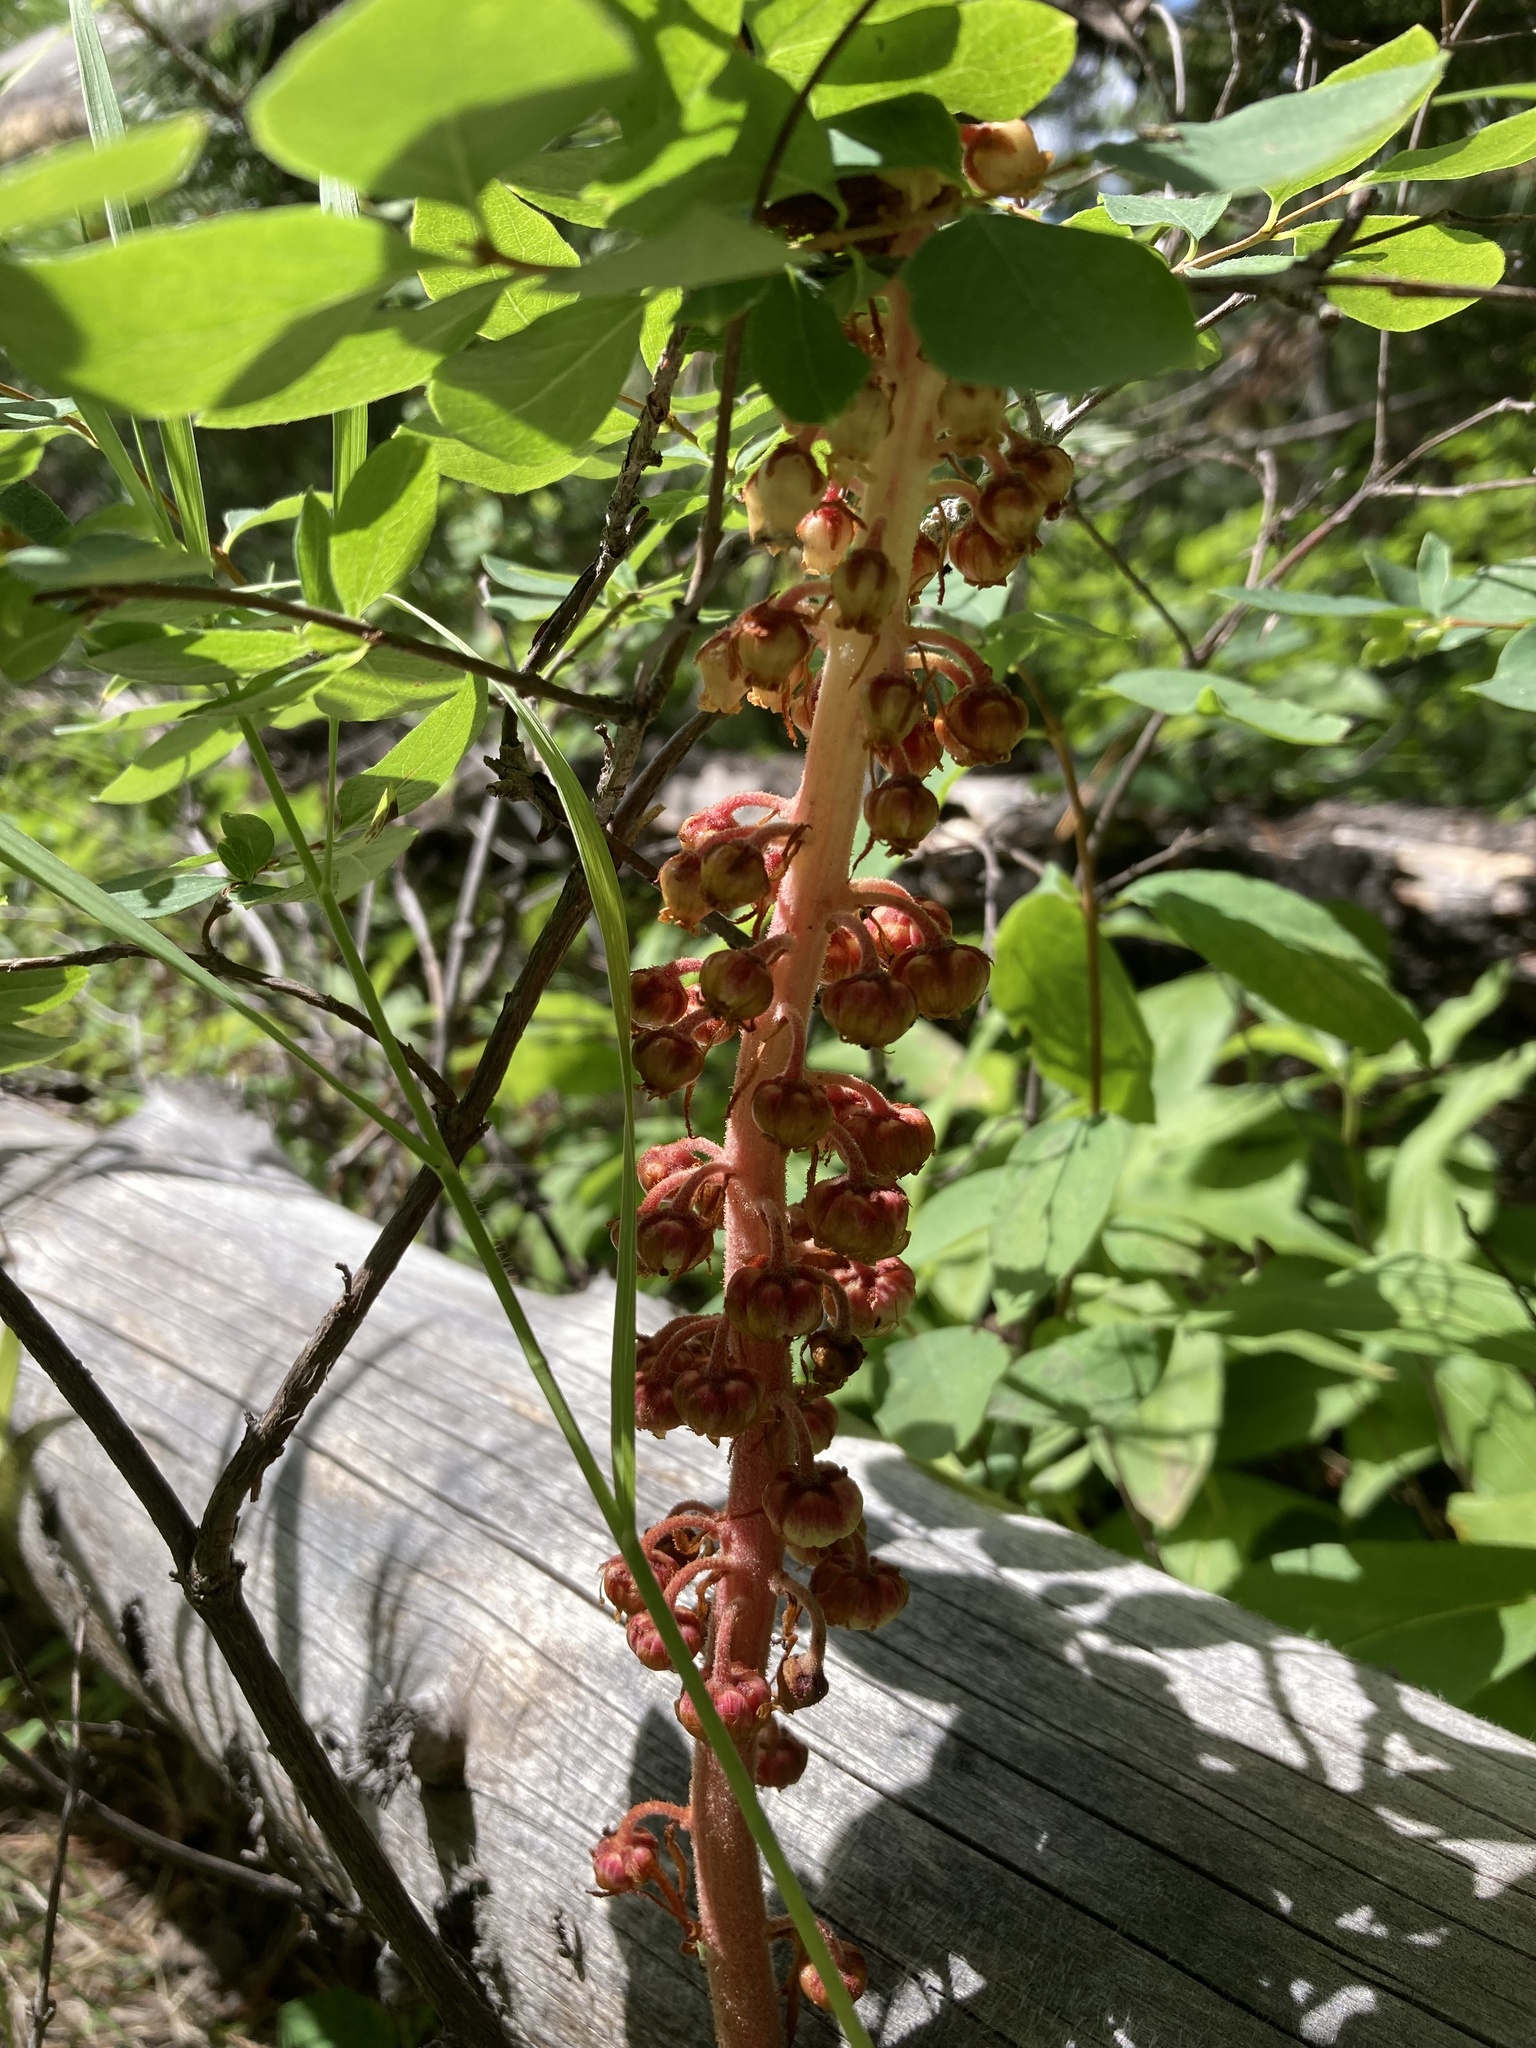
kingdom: Plantae
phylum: Tracheophyta
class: Magnoliopsida
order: Ericales
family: Ericaceae
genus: Pterospora
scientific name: Pterospora andromedea
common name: Giant bird's-nest
